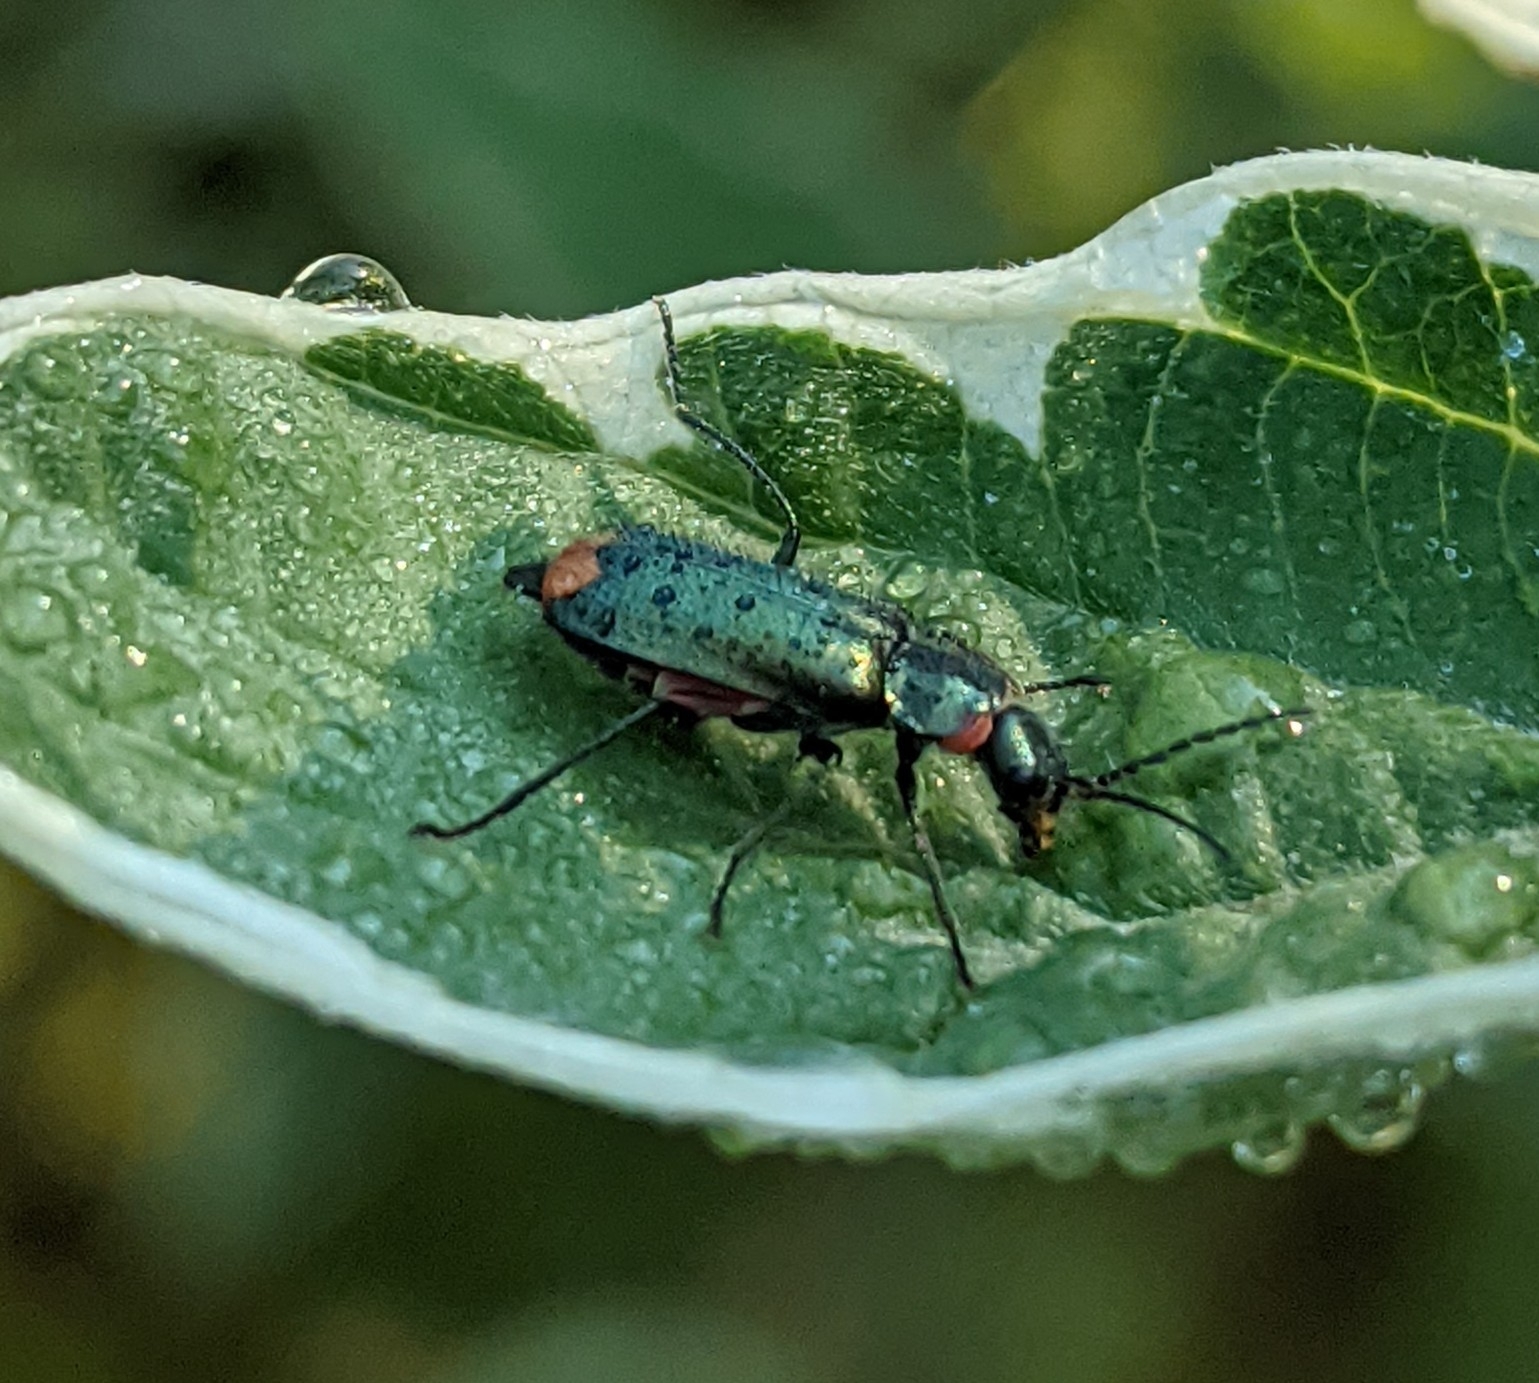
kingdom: Animalia
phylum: Arthropoda
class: Insecta
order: Coleoptera
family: Melyridae
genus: Malachius
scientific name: Malachius bipustulatus
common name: Malachite beetle
